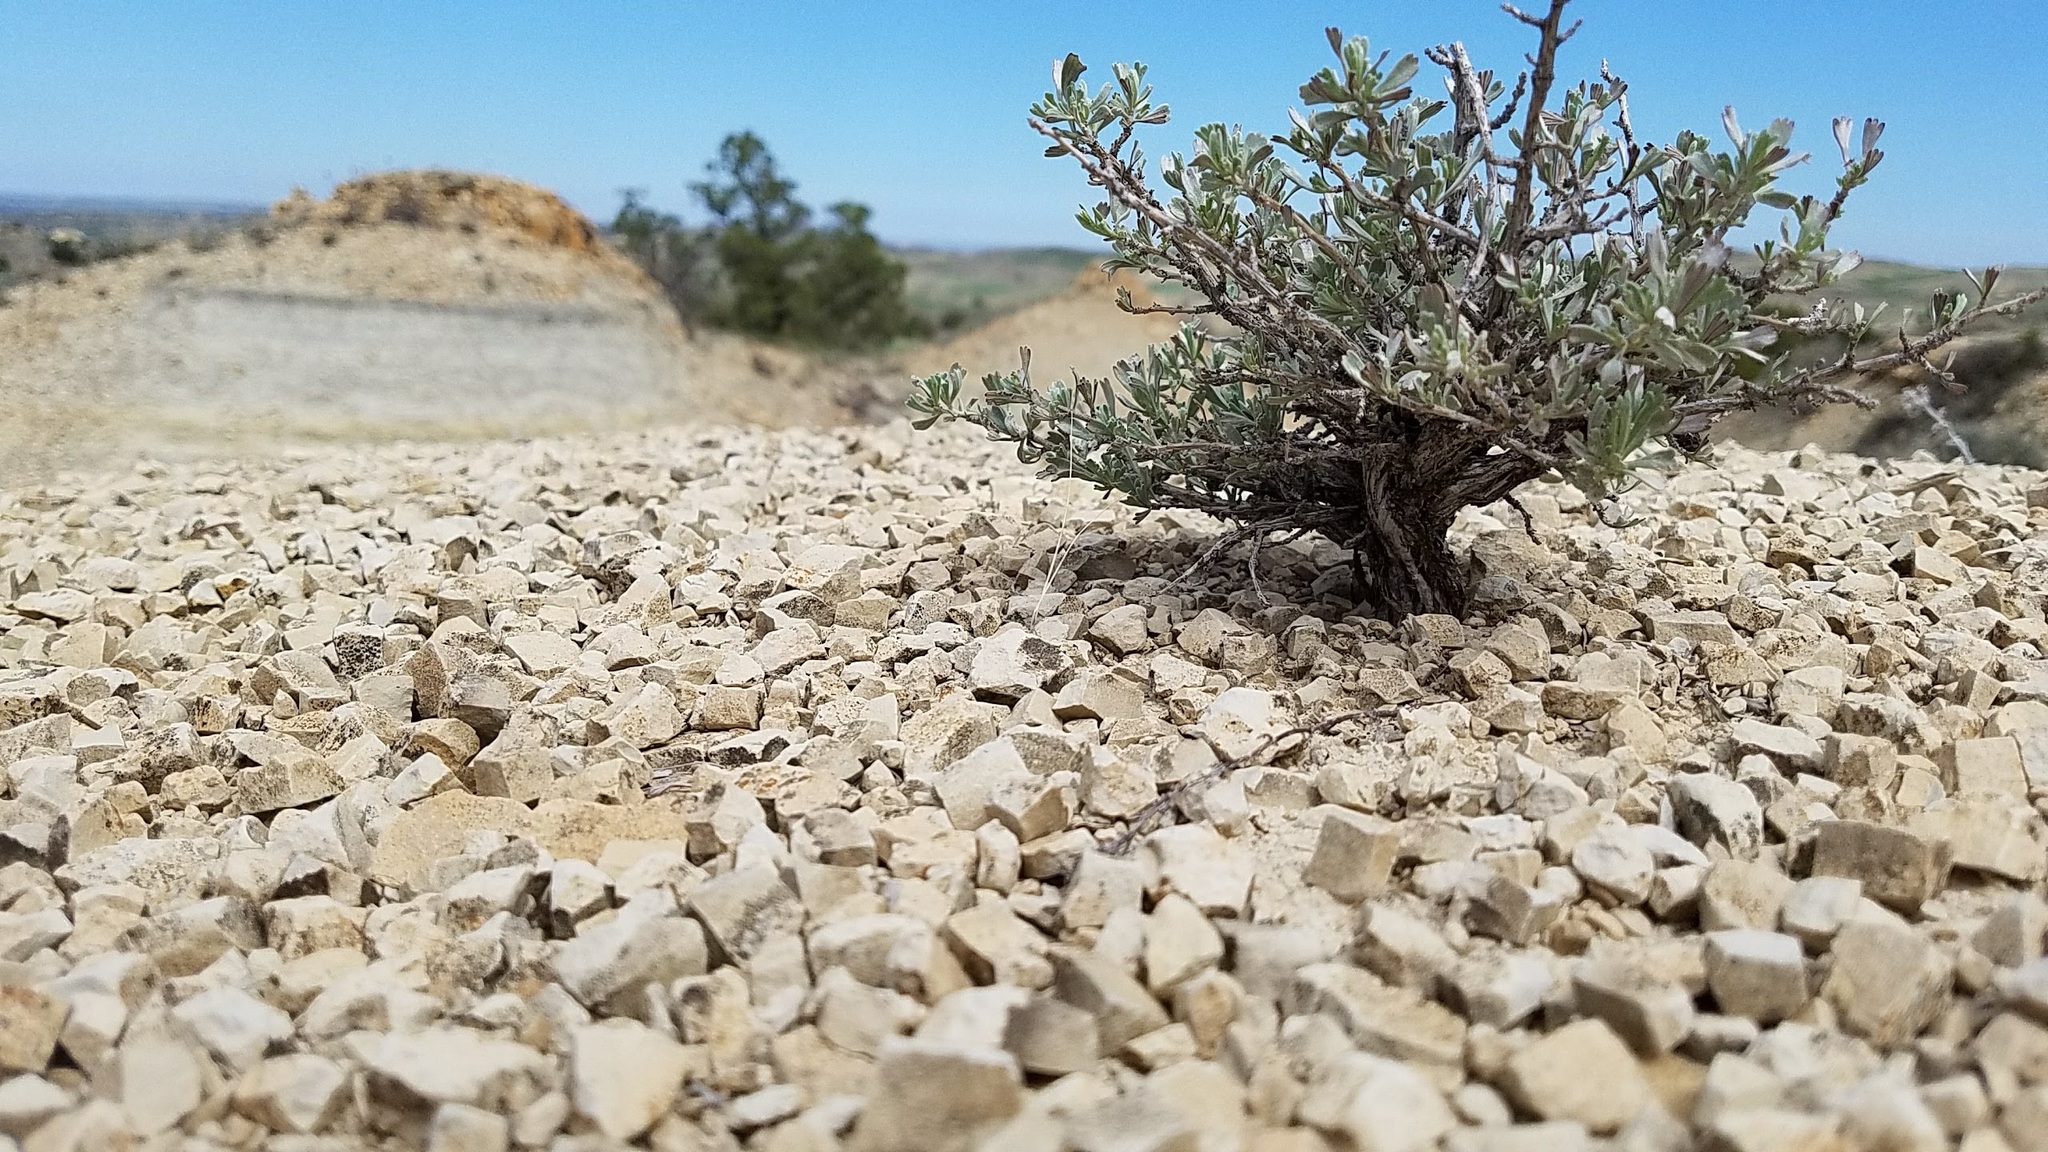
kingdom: Plantae
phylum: Tracheophyta
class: Magnoliopsida
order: Asterales
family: Asteraceae
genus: Artemisia
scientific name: Artemisia tridentata
